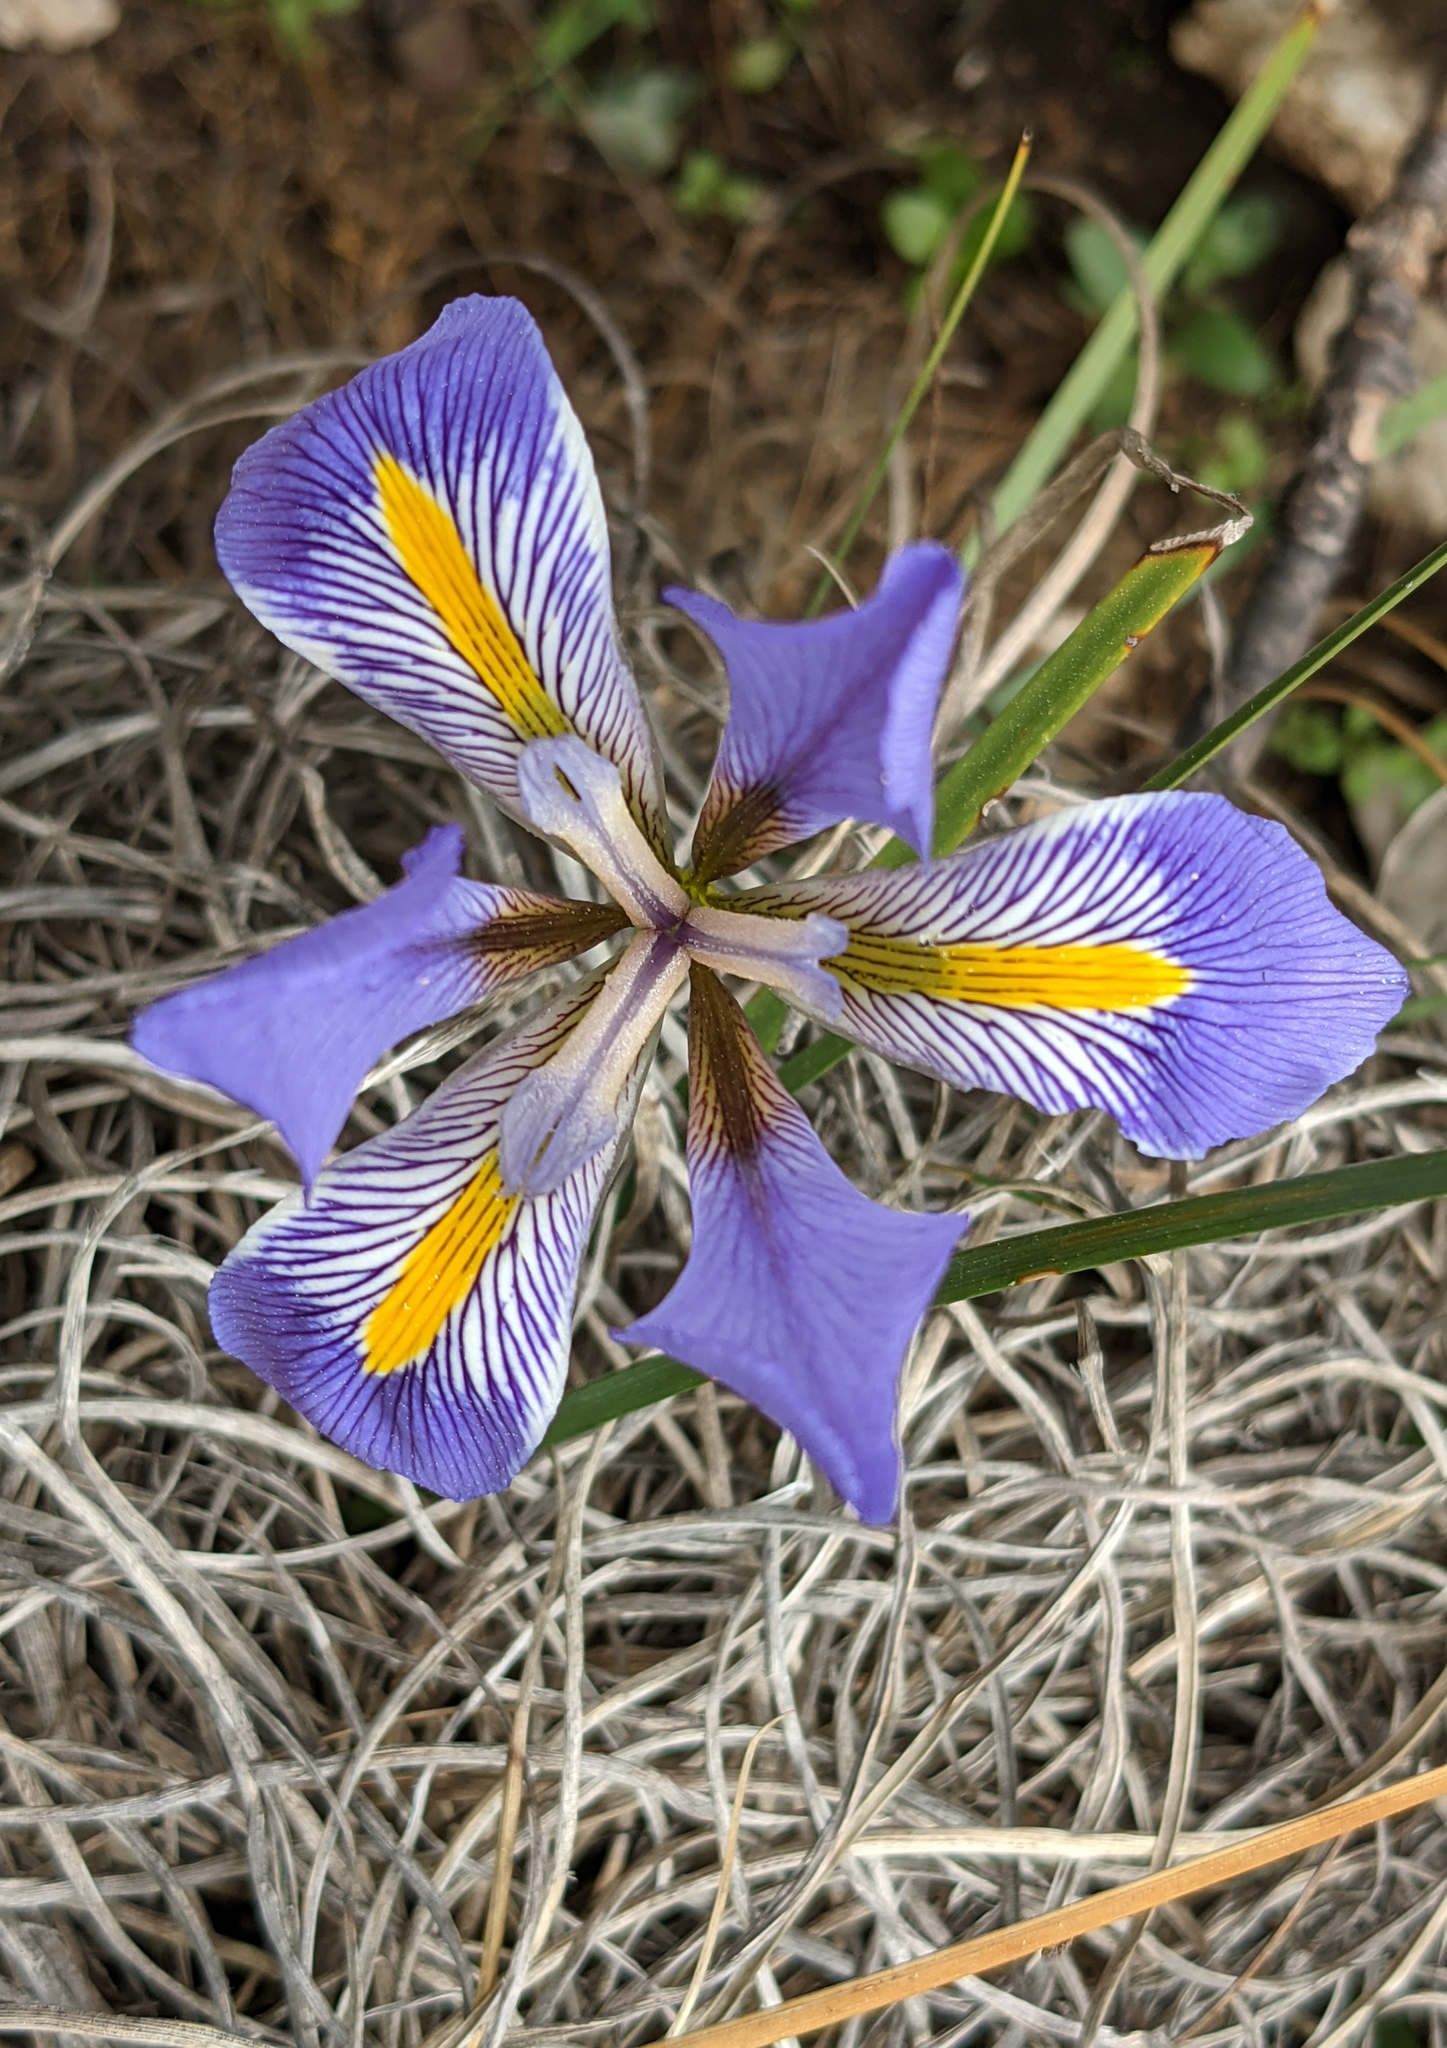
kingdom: Plantae
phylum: Tracheophyta
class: Liliopsida
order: Asparagales
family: Iridaceae
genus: Iris
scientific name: Iris unguicularis
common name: Algerian iris
